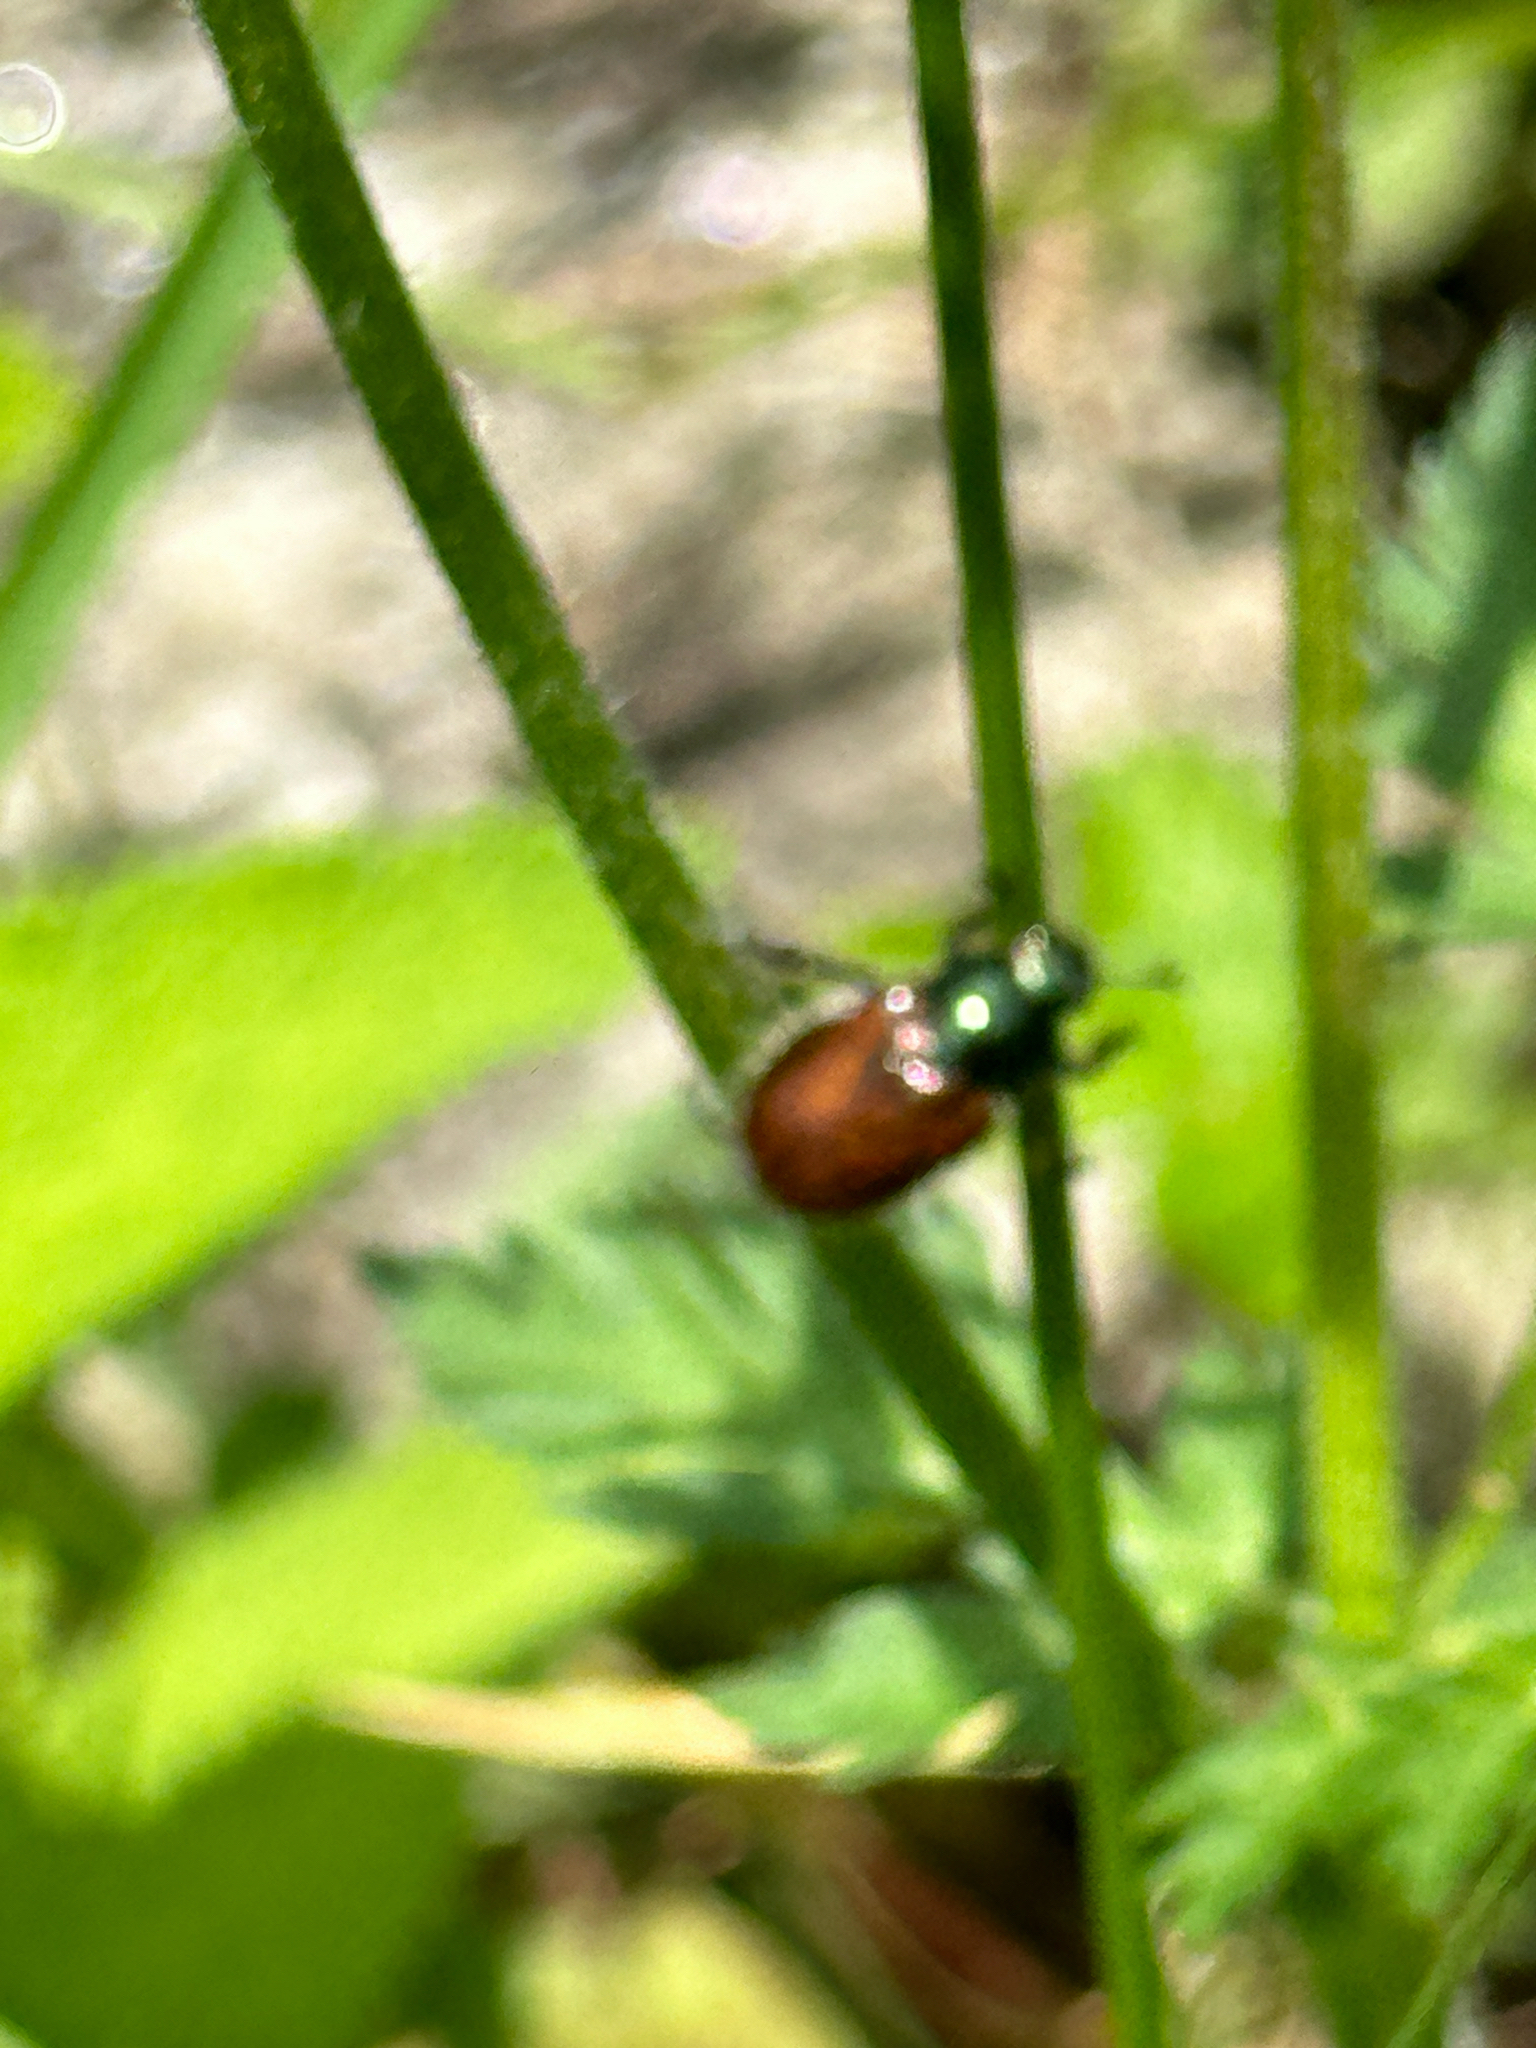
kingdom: Animalia
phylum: Arthropoda
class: Insecta
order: Coleoptera
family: Scarabaeidae
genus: Phyllopertha
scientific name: Phyllopertha horticola
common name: Garden chafer
